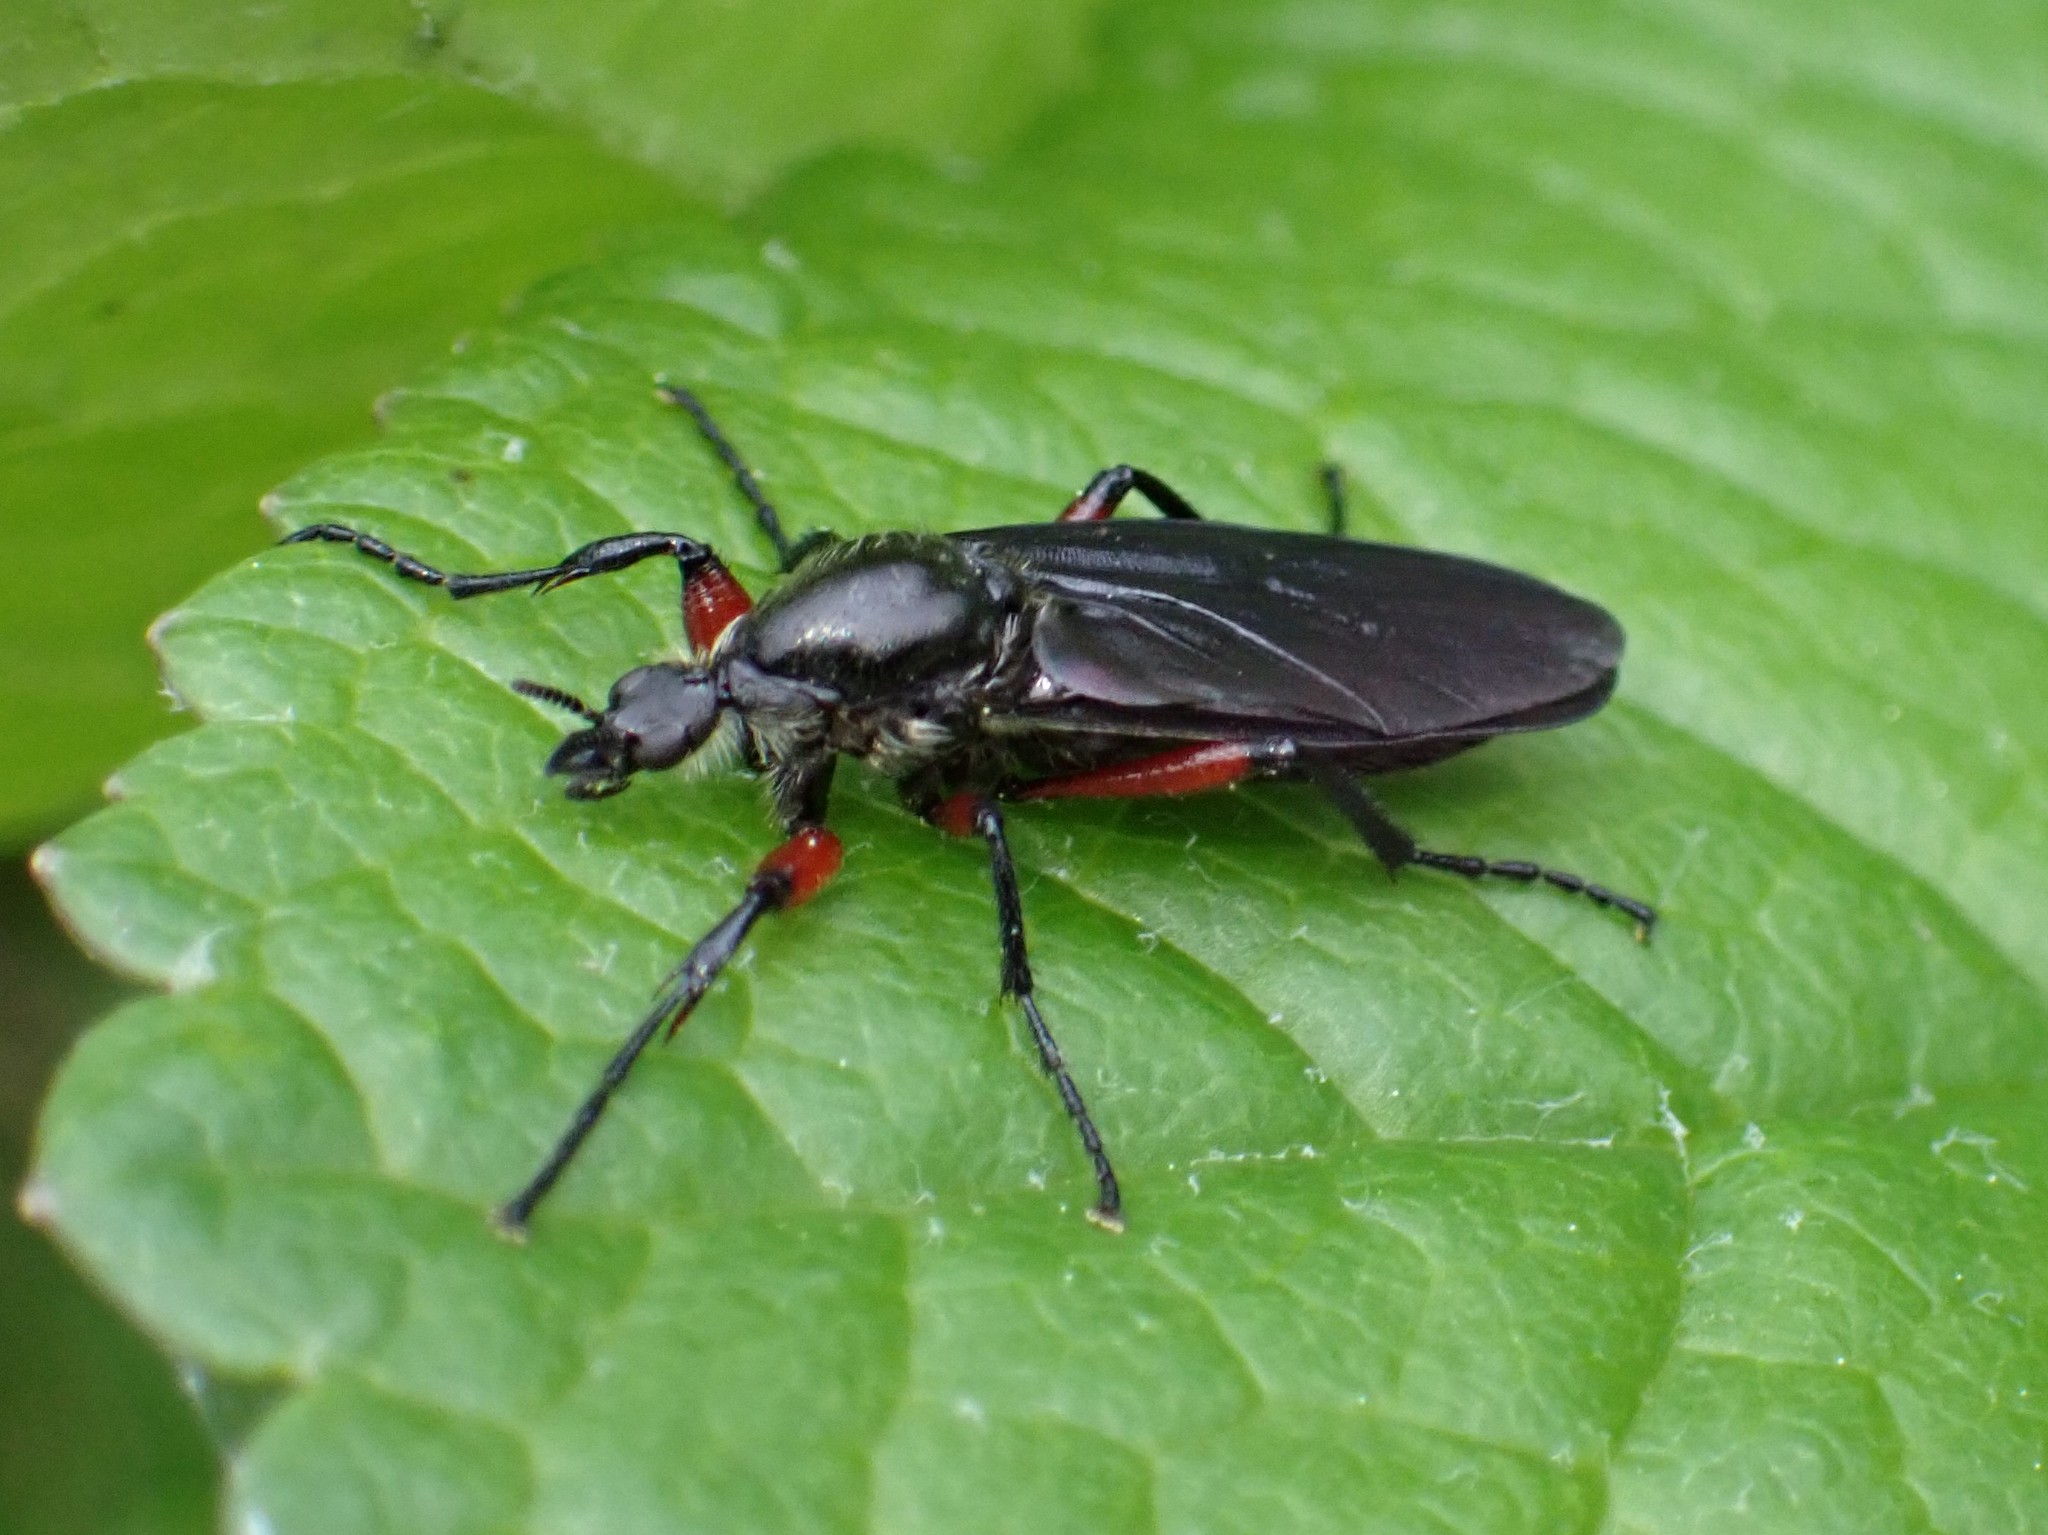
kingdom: Animalia
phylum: Arthropoda
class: Insecta
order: Diptera
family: Bibionidae
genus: Bibio
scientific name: Bibio femoratus
